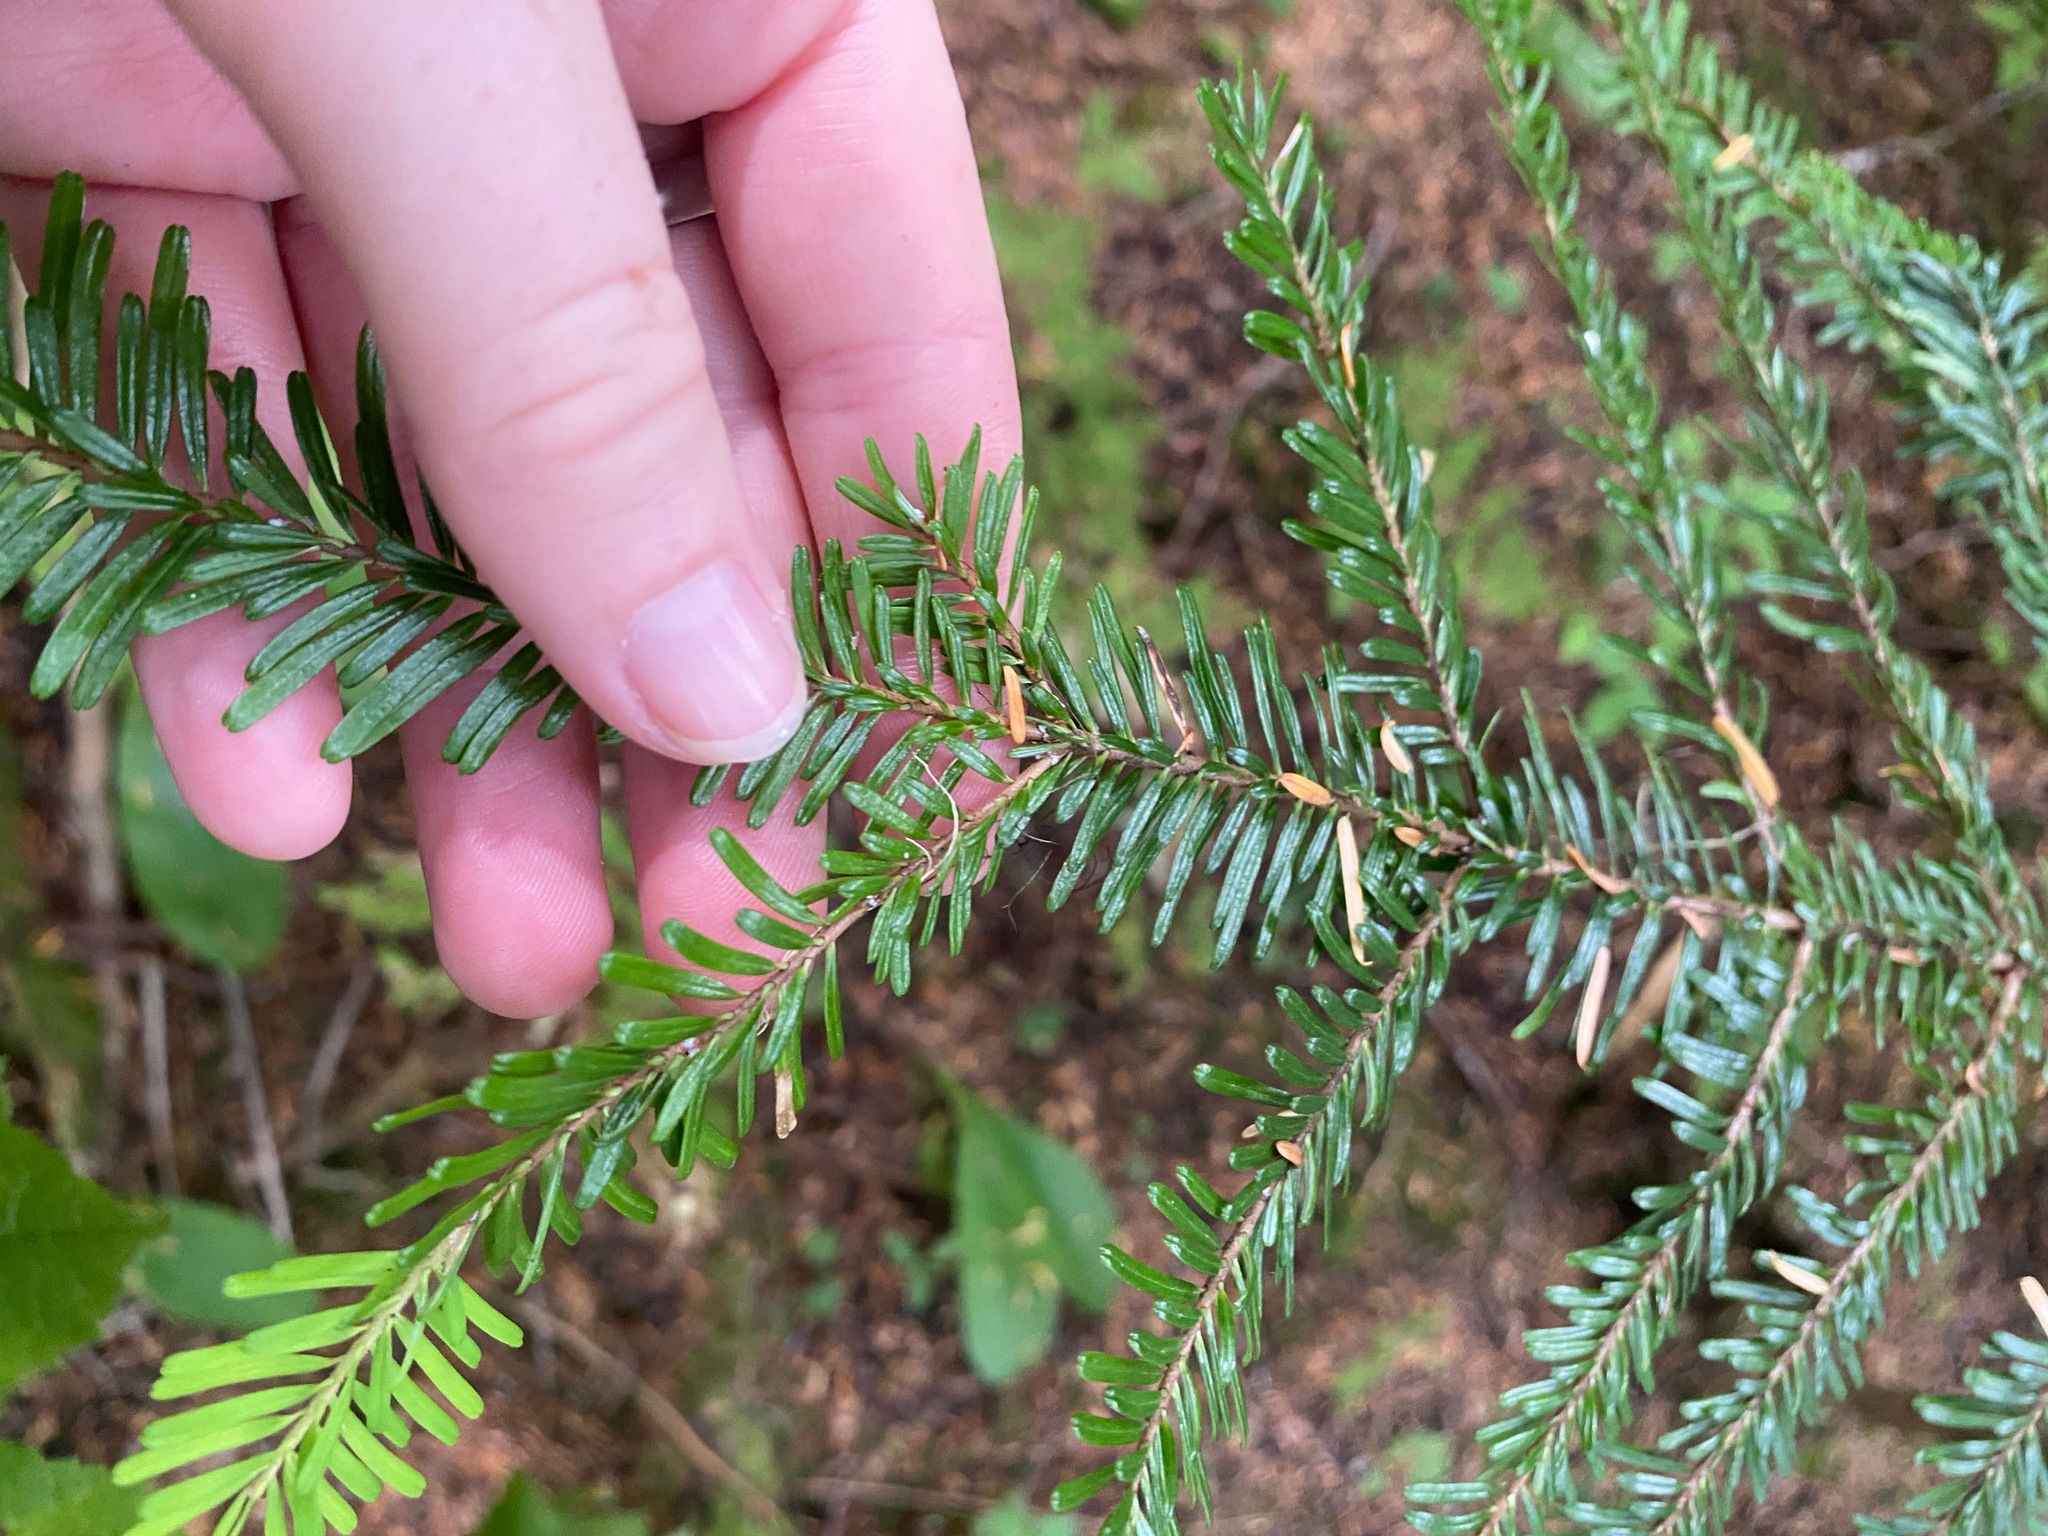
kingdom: Plantae
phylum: Tracheophyta
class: Pinopsida
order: Pinales
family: Pinaceae
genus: Abies
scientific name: Abies amabilis
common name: Pacific silver fir
